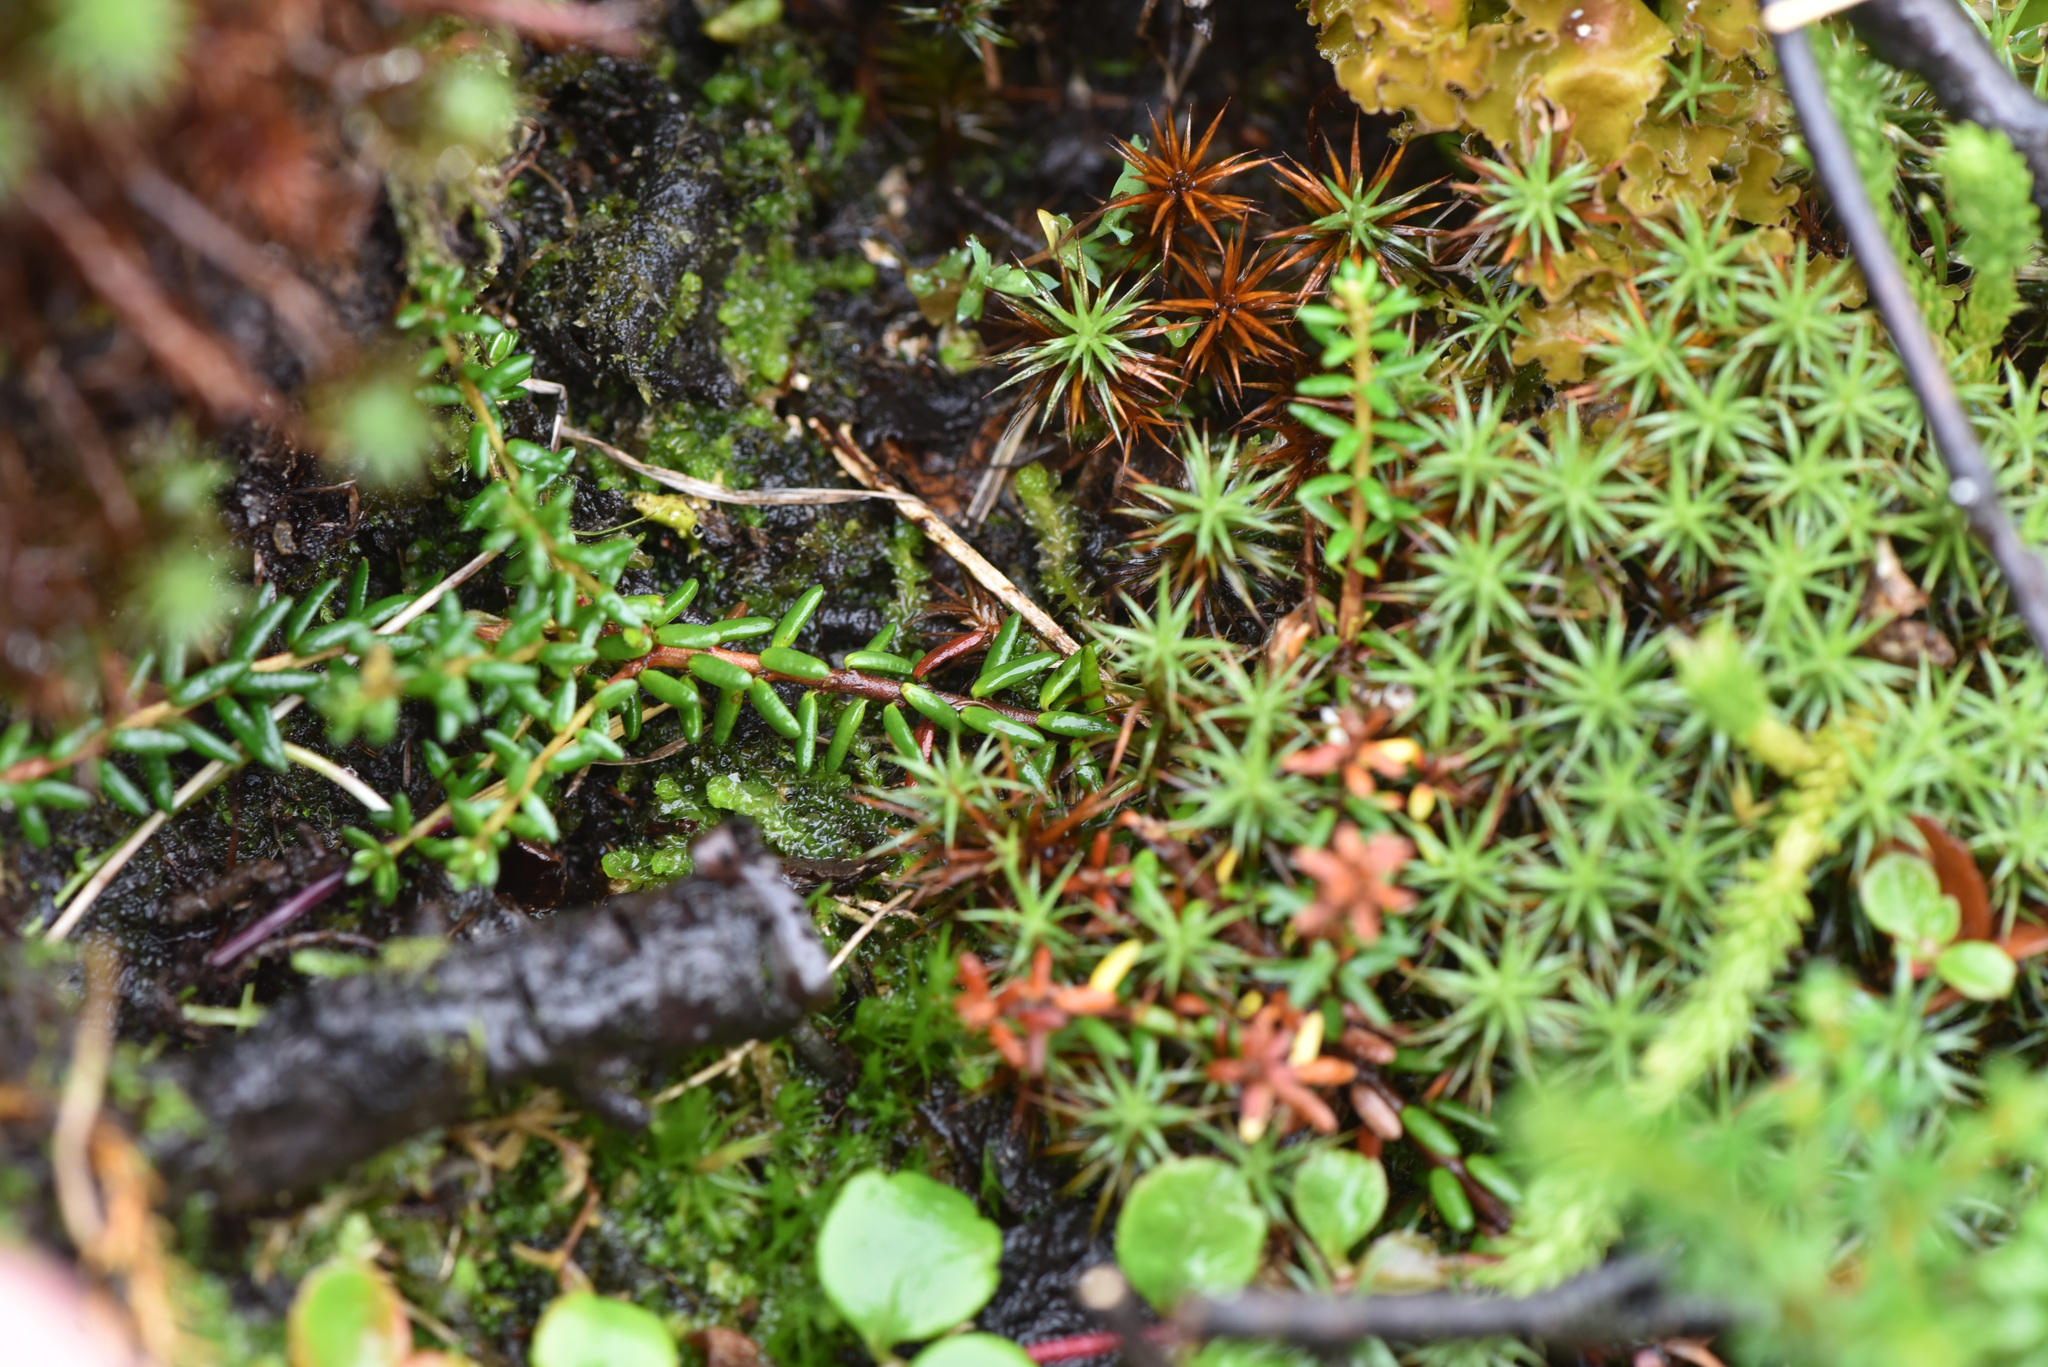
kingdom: Plantae
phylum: Tracheophyta
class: Magnoliopsida
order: Ericales
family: Ericaceae
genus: Empetrum
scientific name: Empetrum nigrum
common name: Black crowberry
